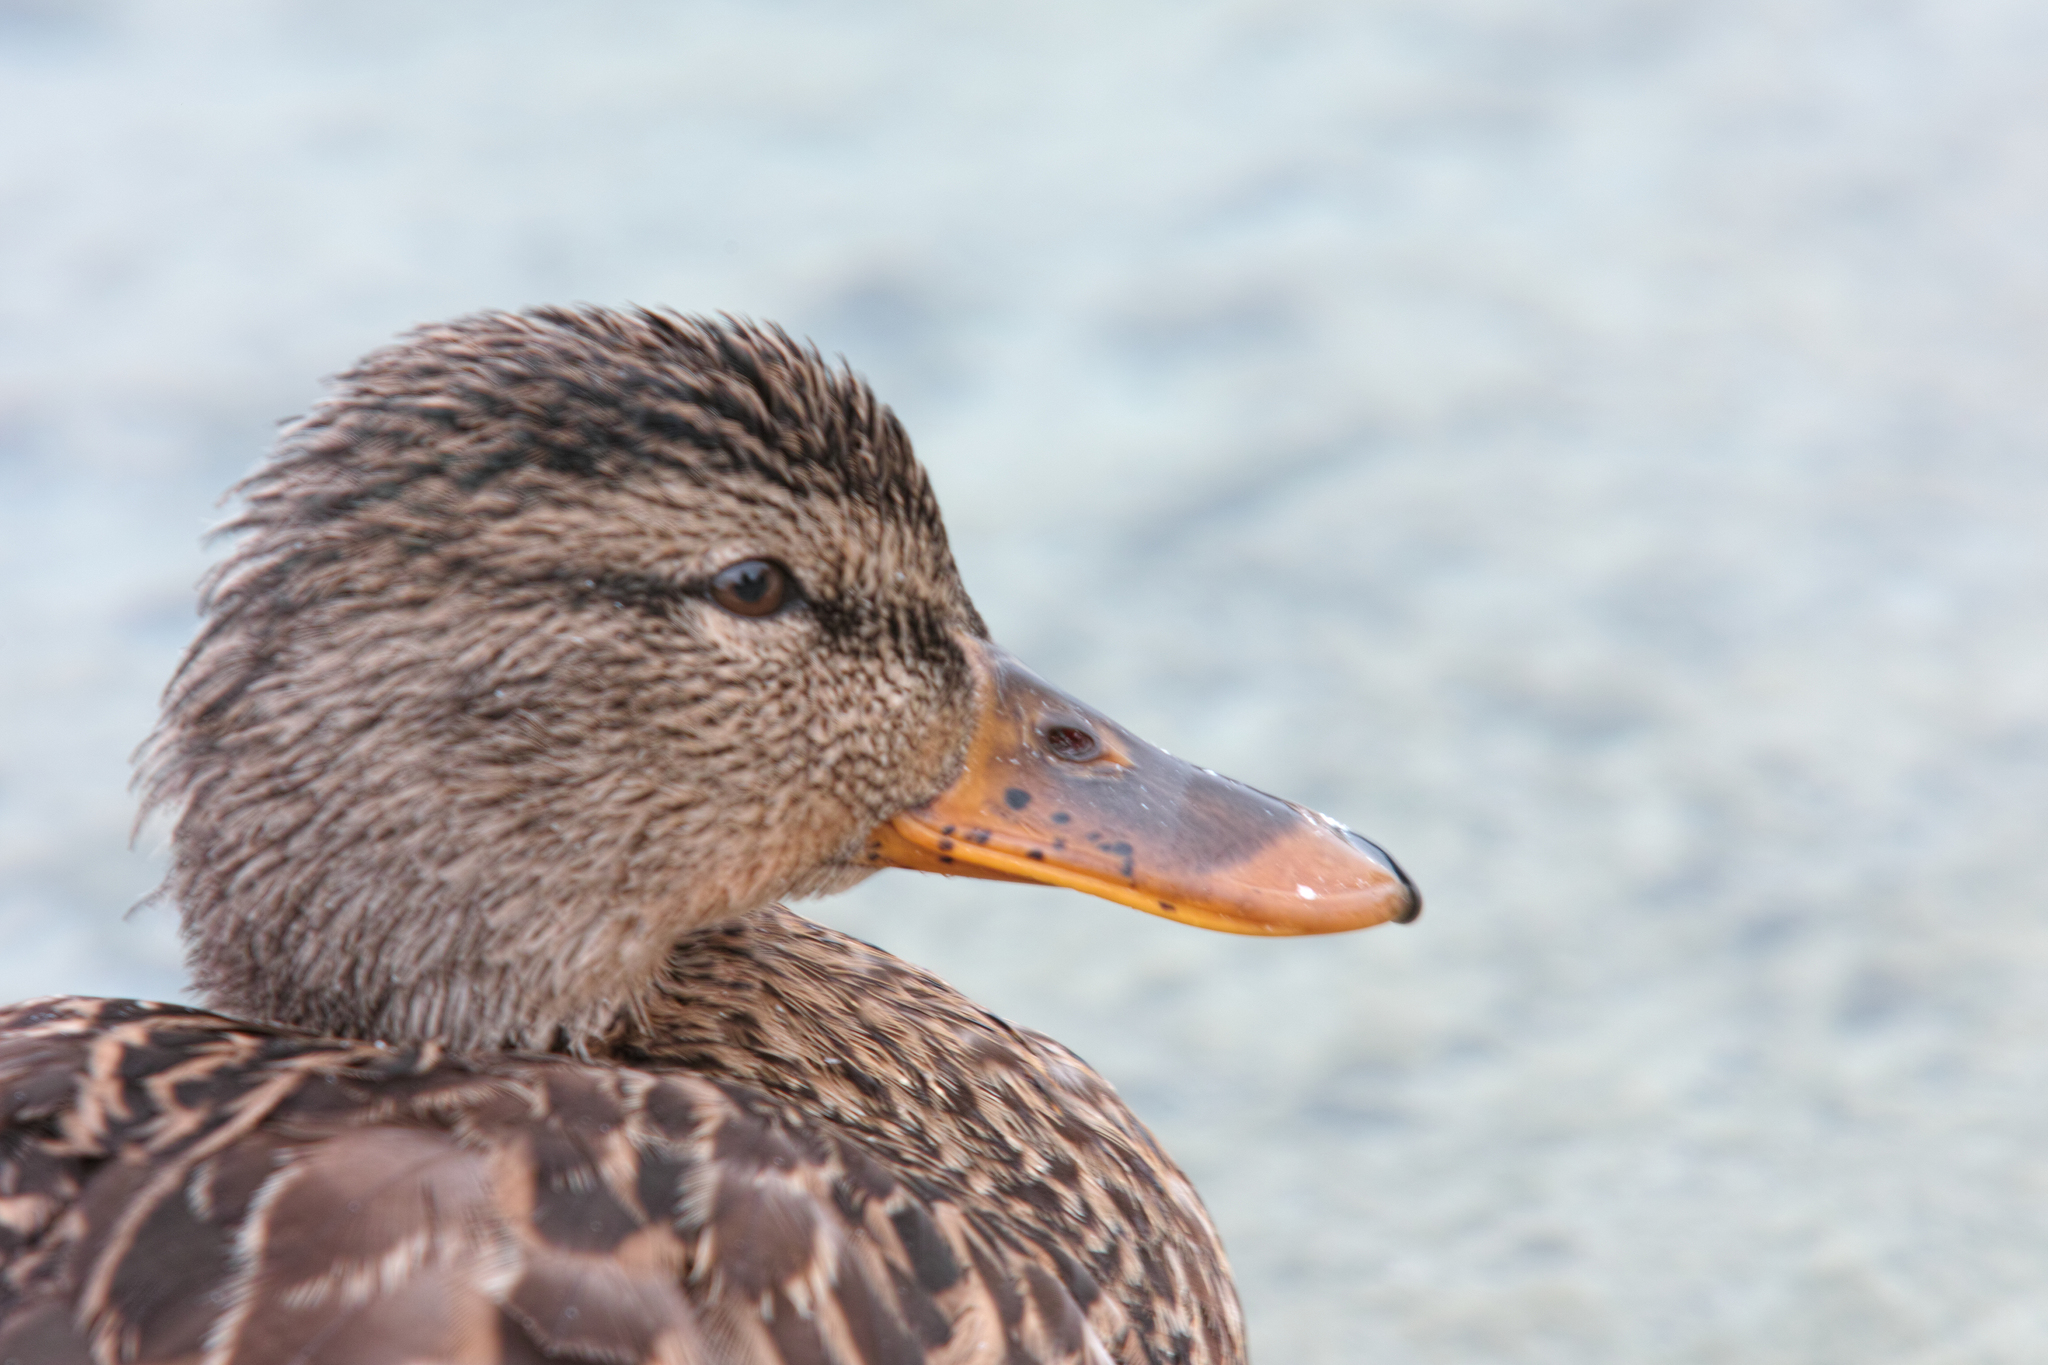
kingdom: Animalia
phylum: Chordata
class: Aves
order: Anseriformes
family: Anatidae
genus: Anas
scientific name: Anas platyrhynchos
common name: Mallard
